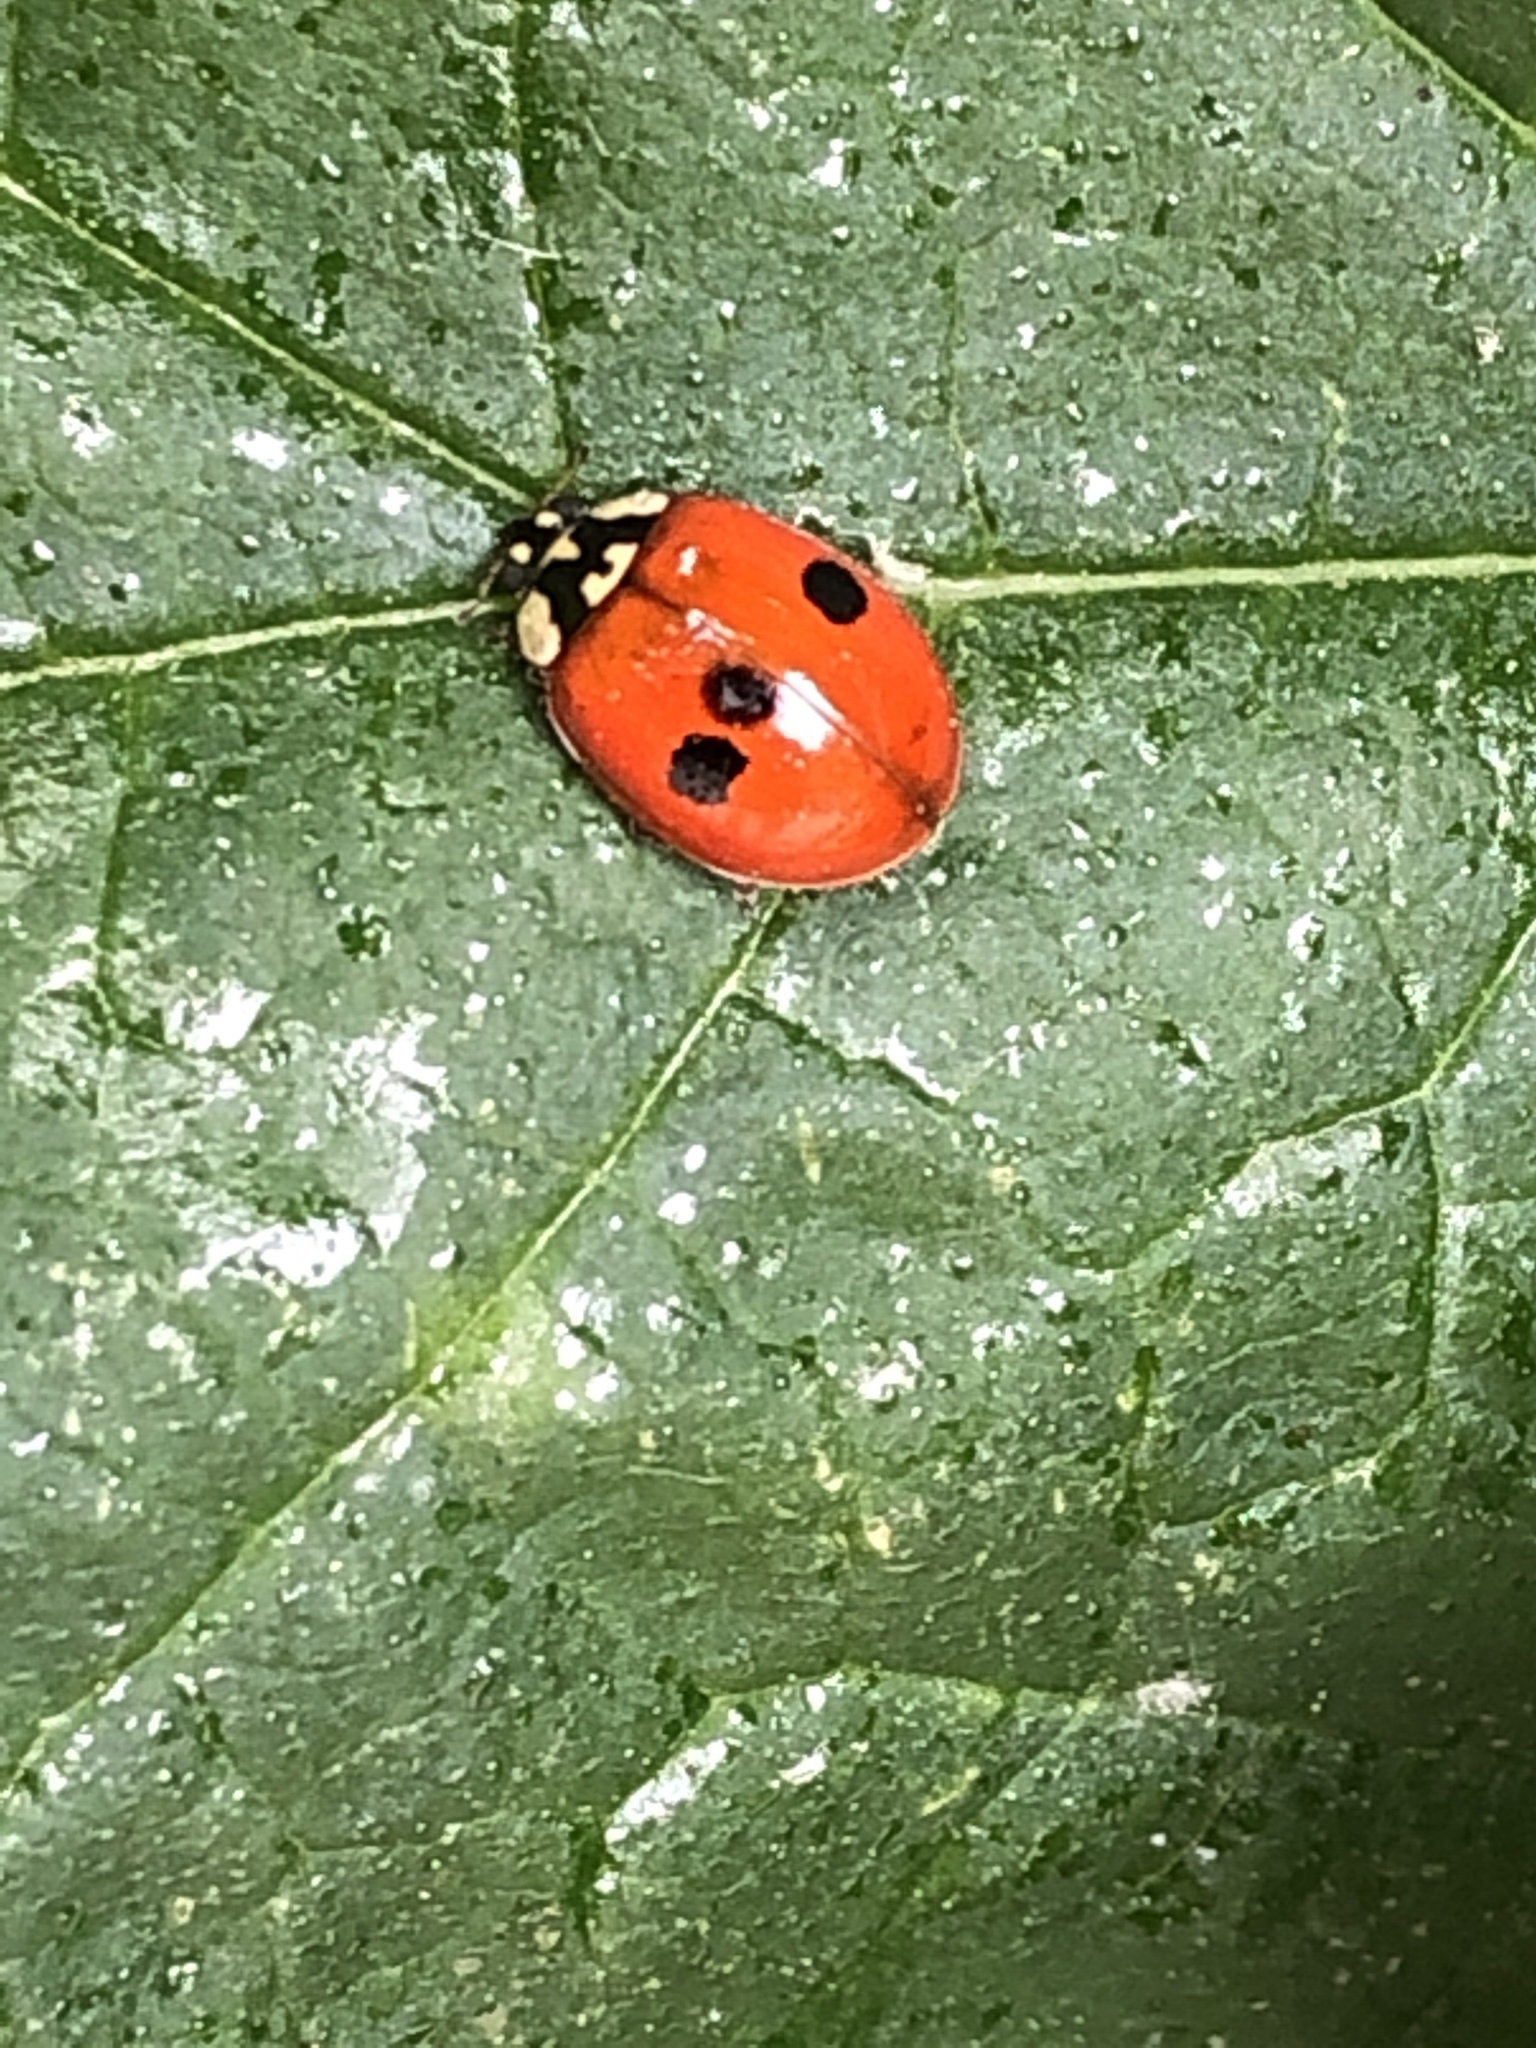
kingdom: Animalia
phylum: Arthropoda
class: Insecta
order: Coleoptera
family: Coccinellidae
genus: Adalia
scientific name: Adalia bipunctata
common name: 2-spot ladybird
